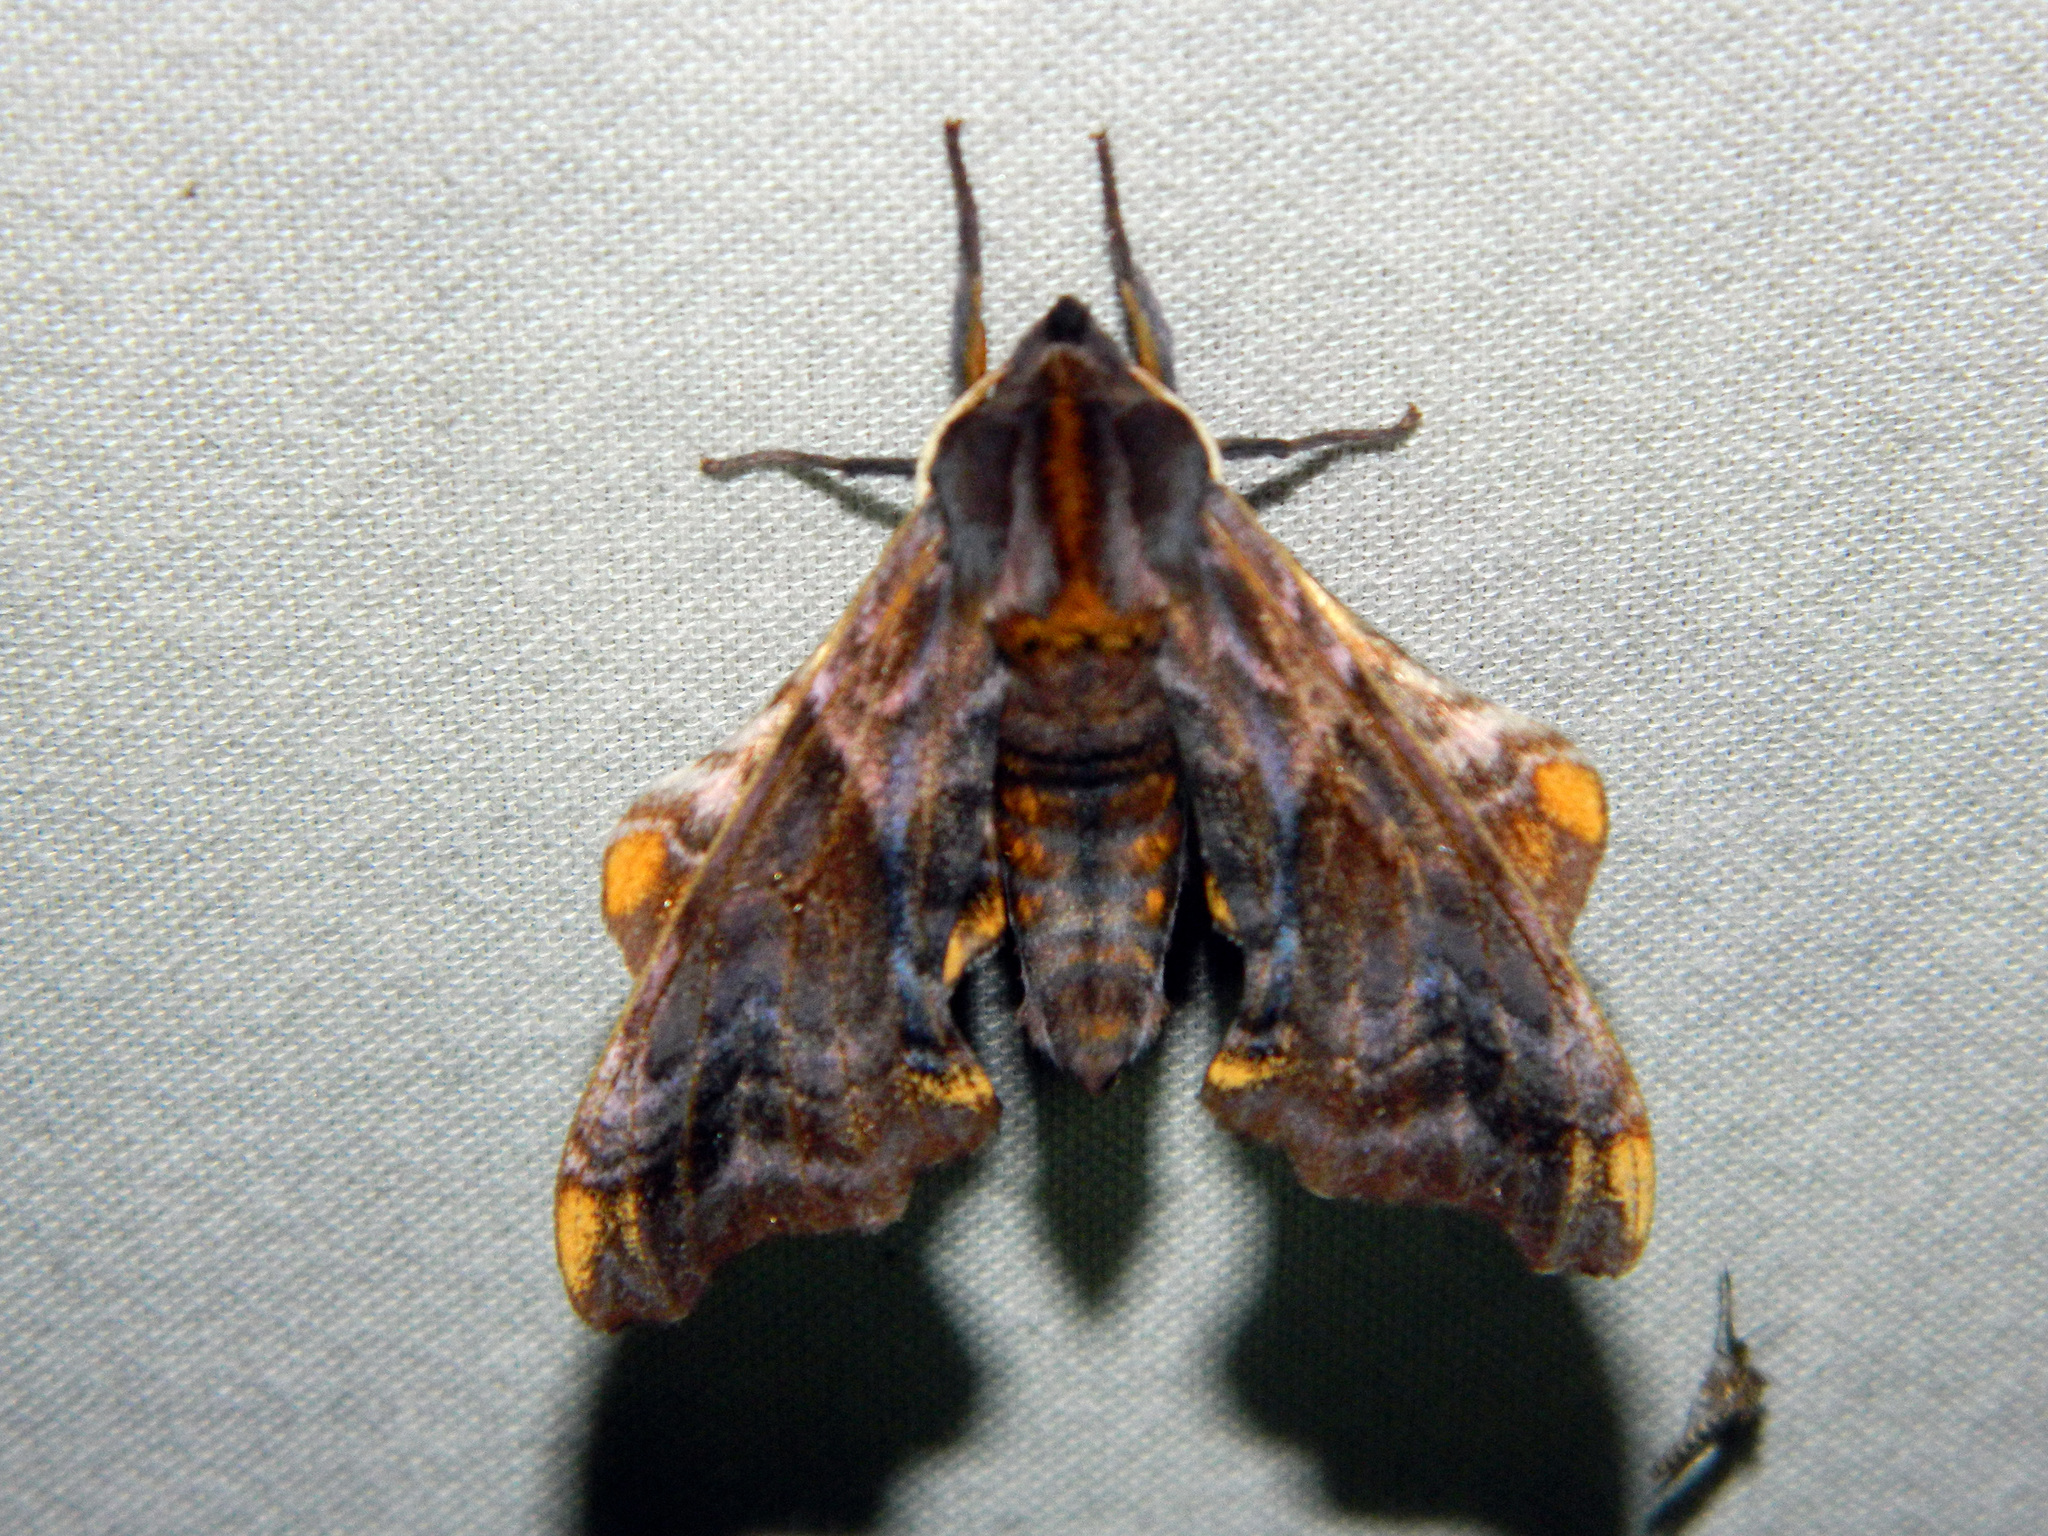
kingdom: Animalia
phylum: Arthropoda
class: Insecta
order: Lepidoptera
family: Sphingidae
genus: Paonias
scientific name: Paonias myops
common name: Small-eyed sphinx
